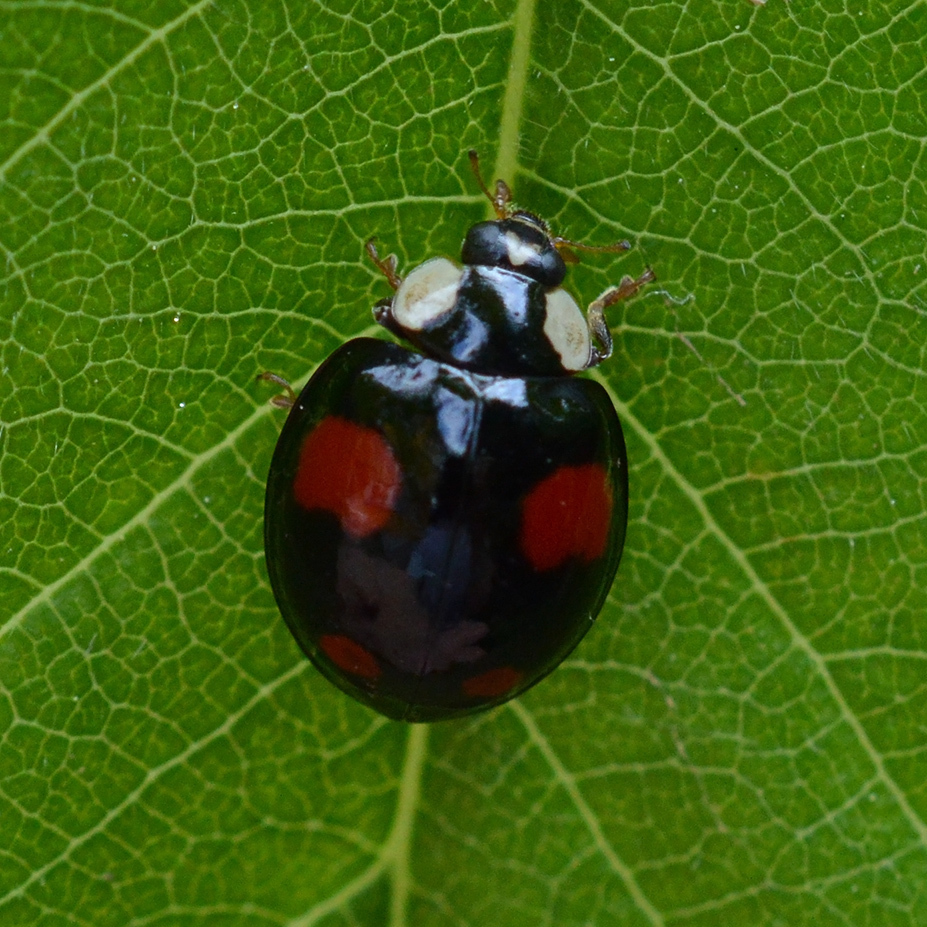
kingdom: Animalia
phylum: Arthropoda
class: Insecta
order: Coleoptera
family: Coccinellidae
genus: Harmonia
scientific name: Harmonia axyridis
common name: Harlequin ladybird
